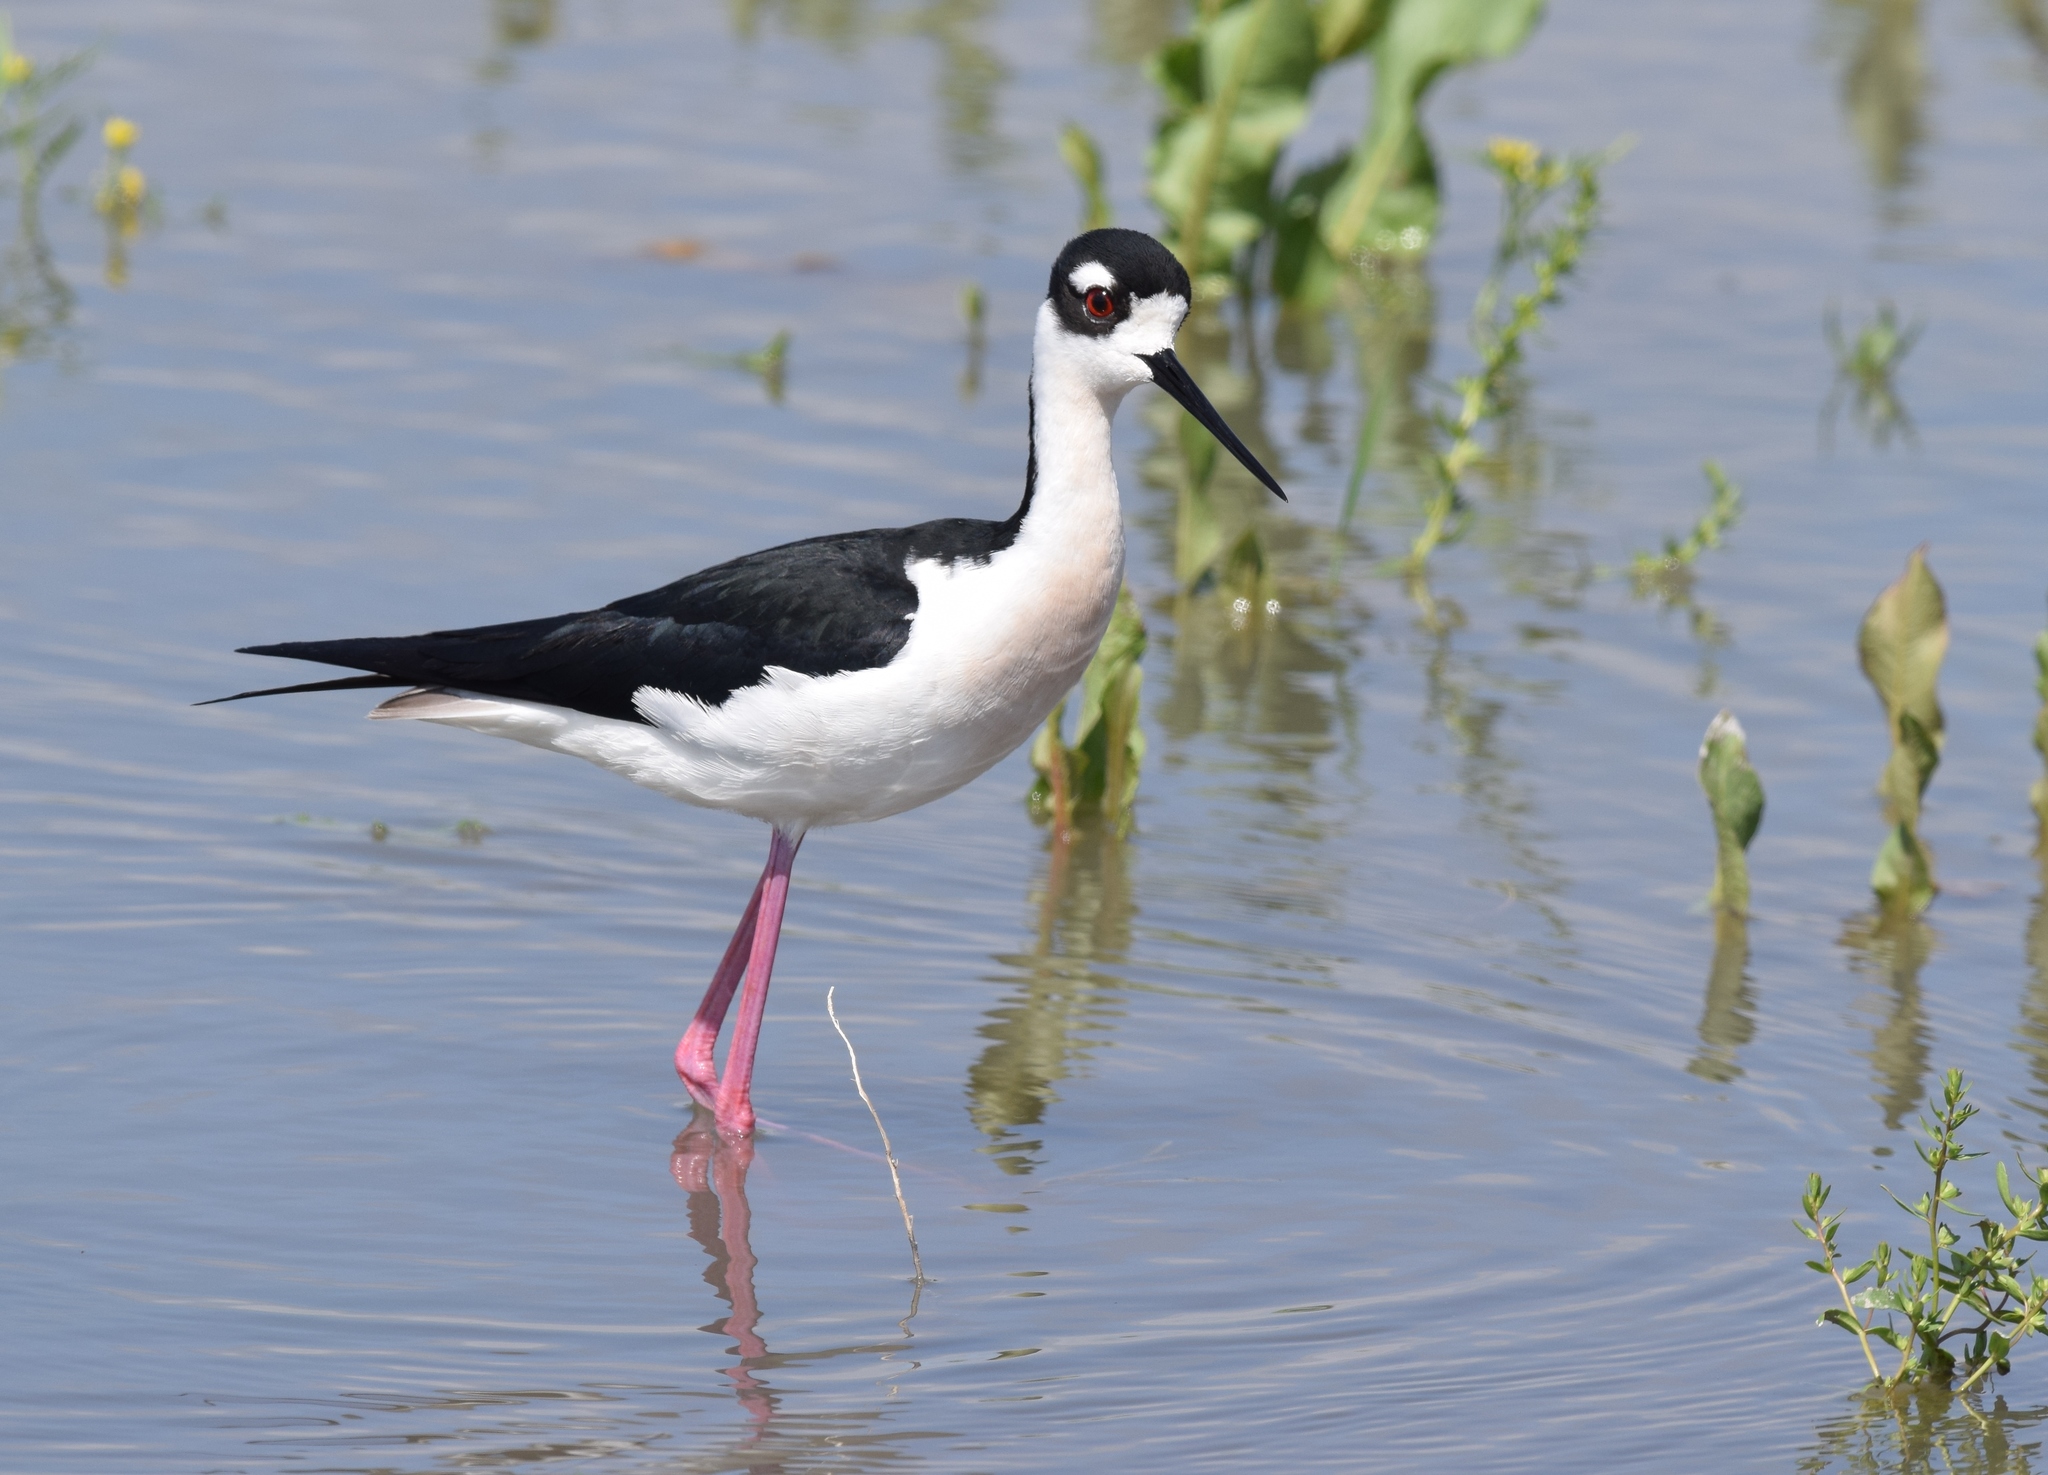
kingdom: Animalia
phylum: Chordata
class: Aves
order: Charadriiformes
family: Recurvirostridae
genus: Himantopus
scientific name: Himantopus mexicanus
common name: Black-necked stilt
